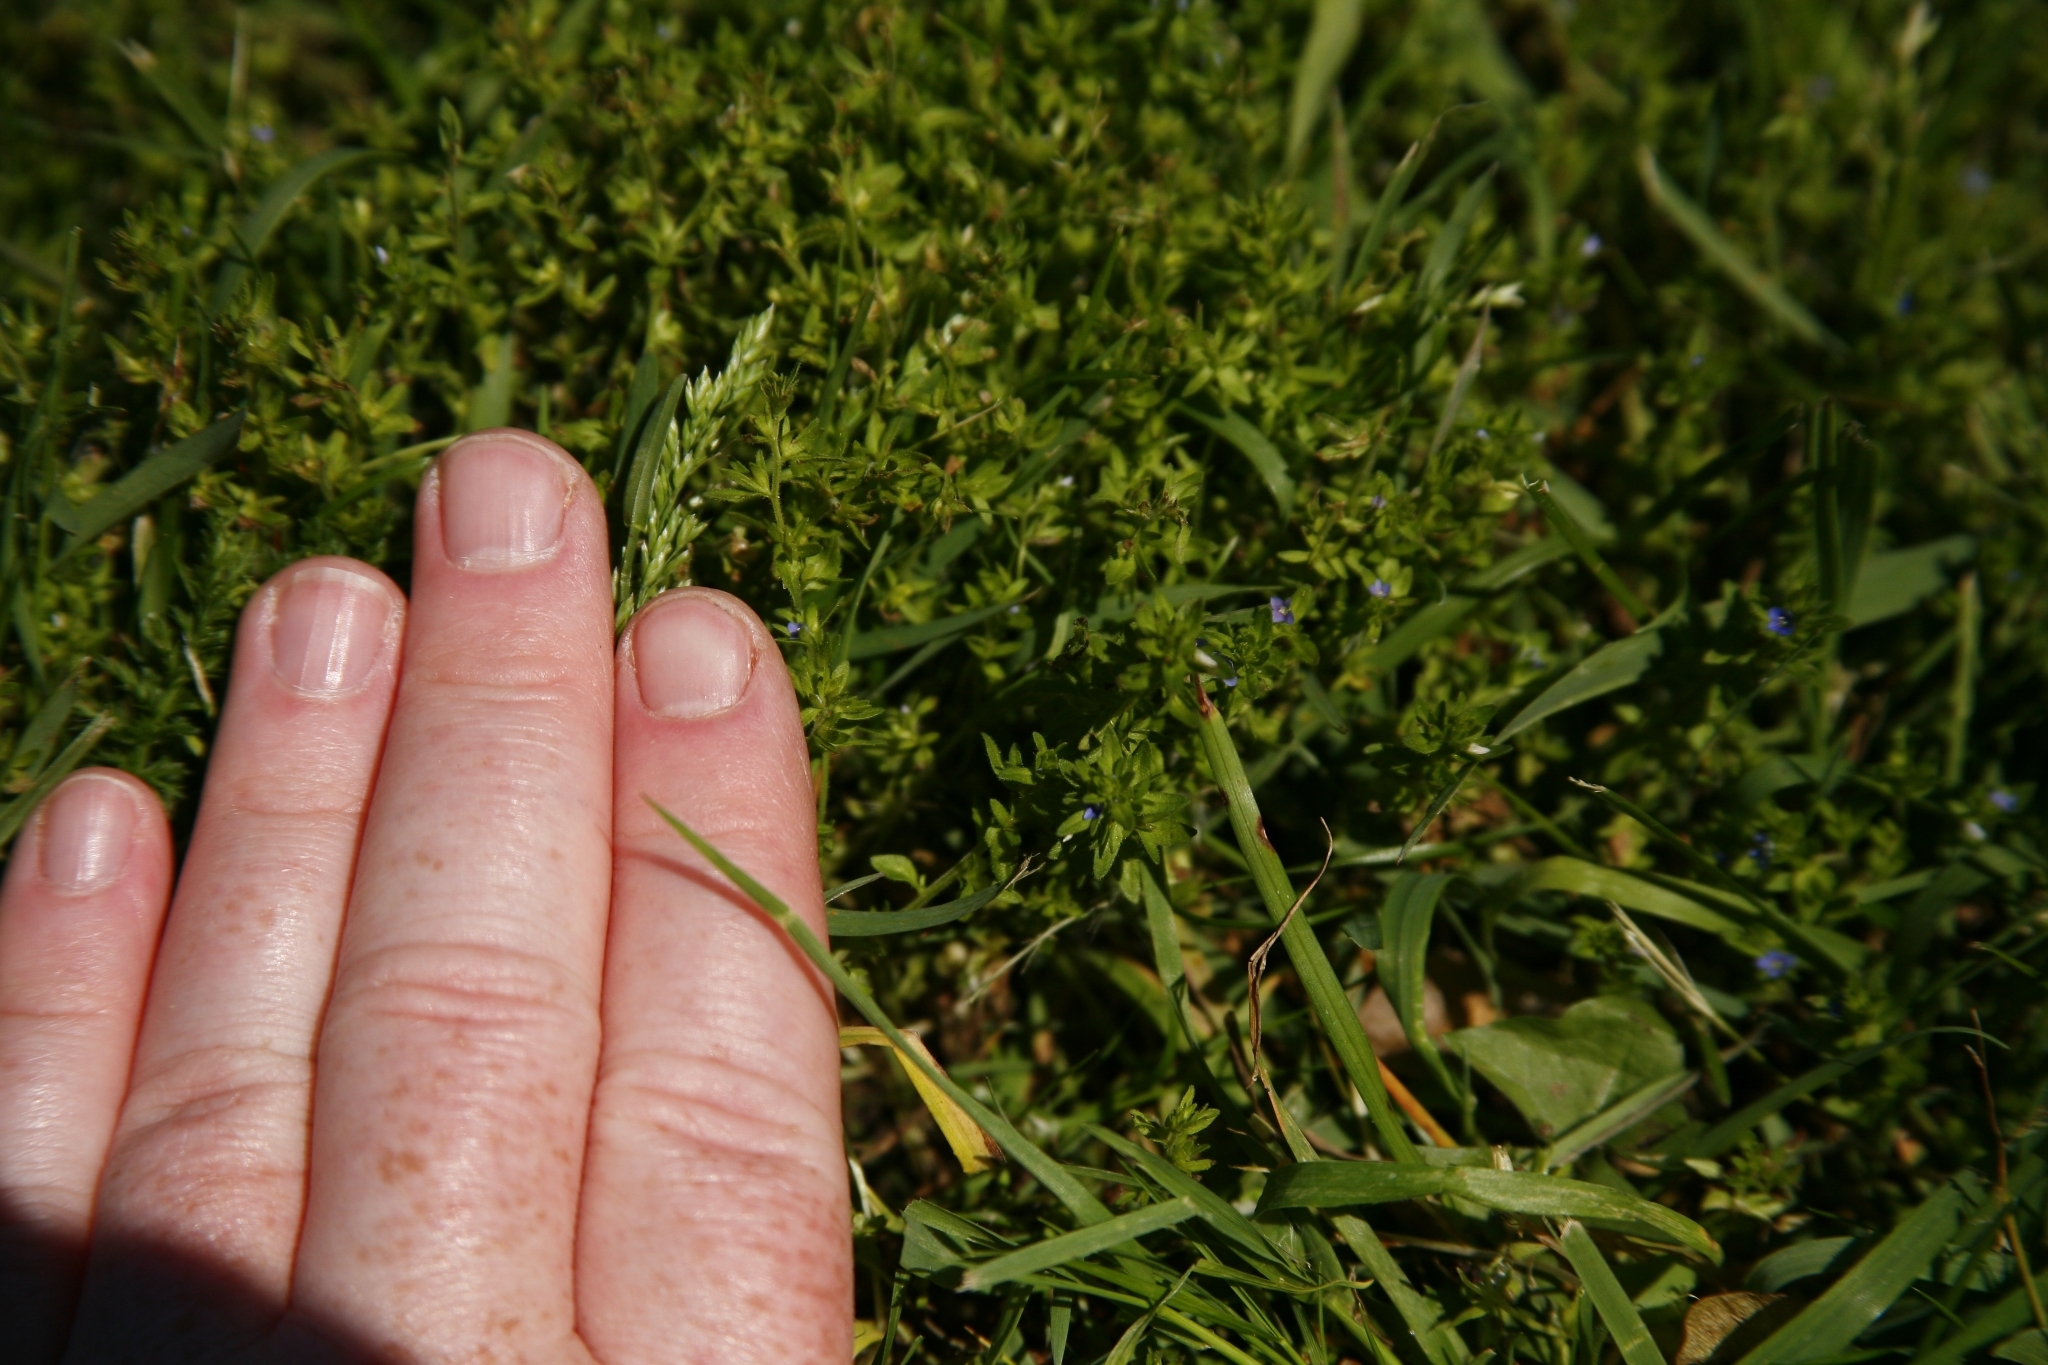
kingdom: Plantae
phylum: Tracheophyta
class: Magnoliopsida
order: Lamiales
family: Plantaginaceae
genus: Veronica
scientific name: Veronica arvensis
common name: Corn speedwell
